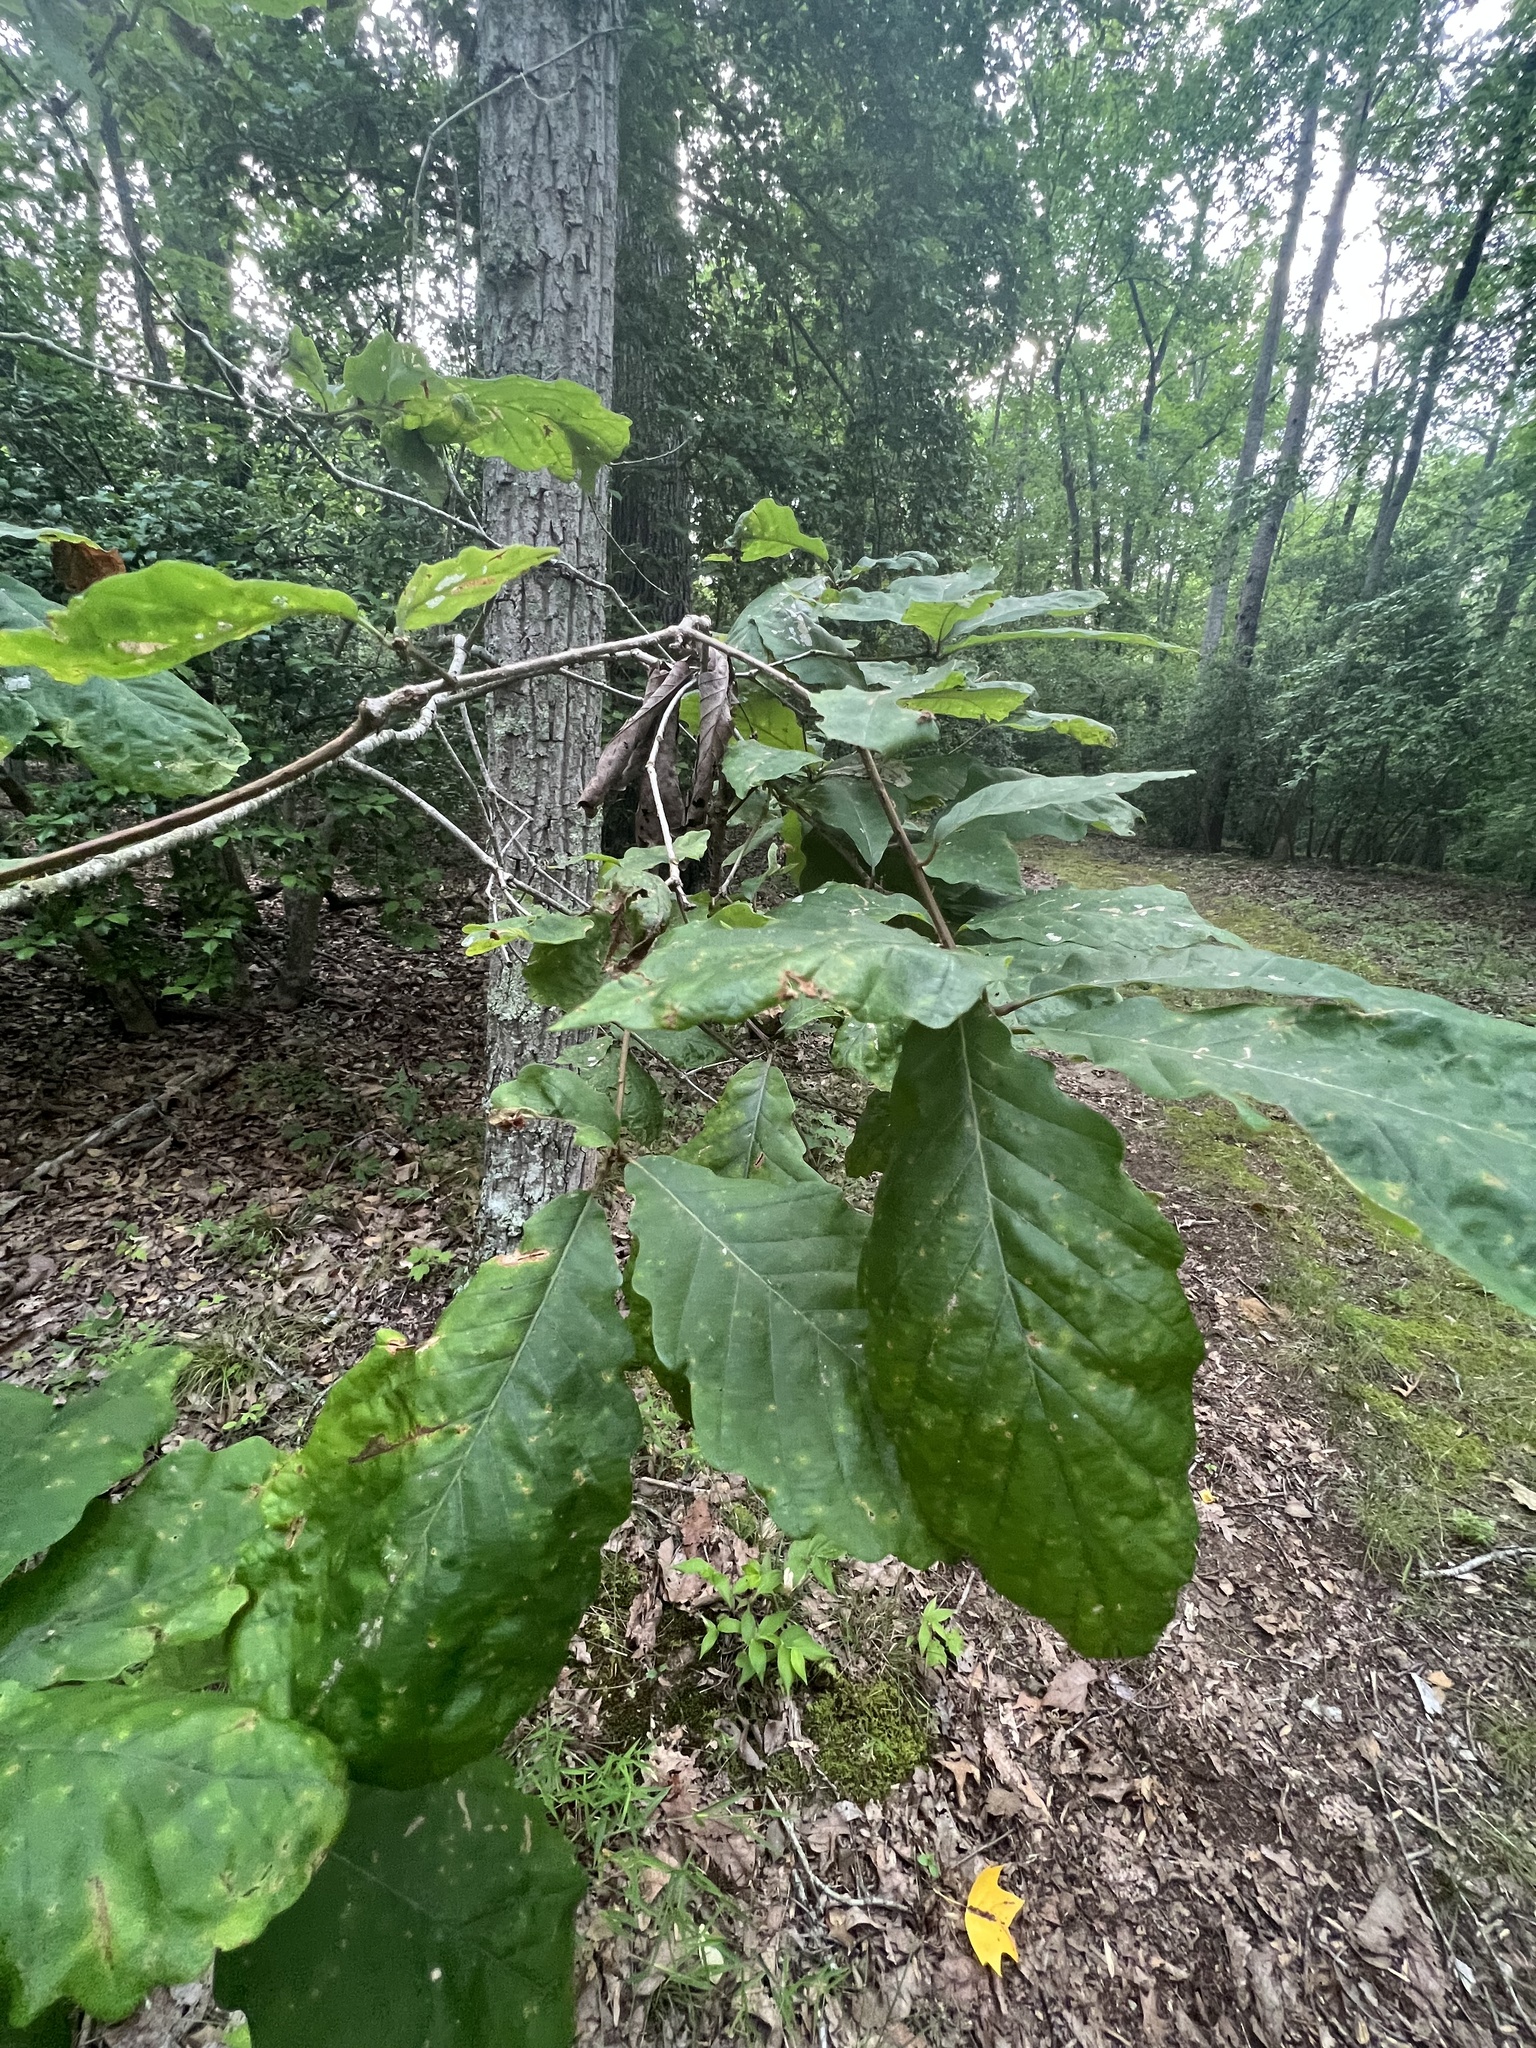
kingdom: Plantae
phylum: Tracheophyta
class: Magnoliopsida
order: Fagales
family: Fagaceae
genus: Quercus
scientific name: Quercus montana
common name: Chestnut oak
